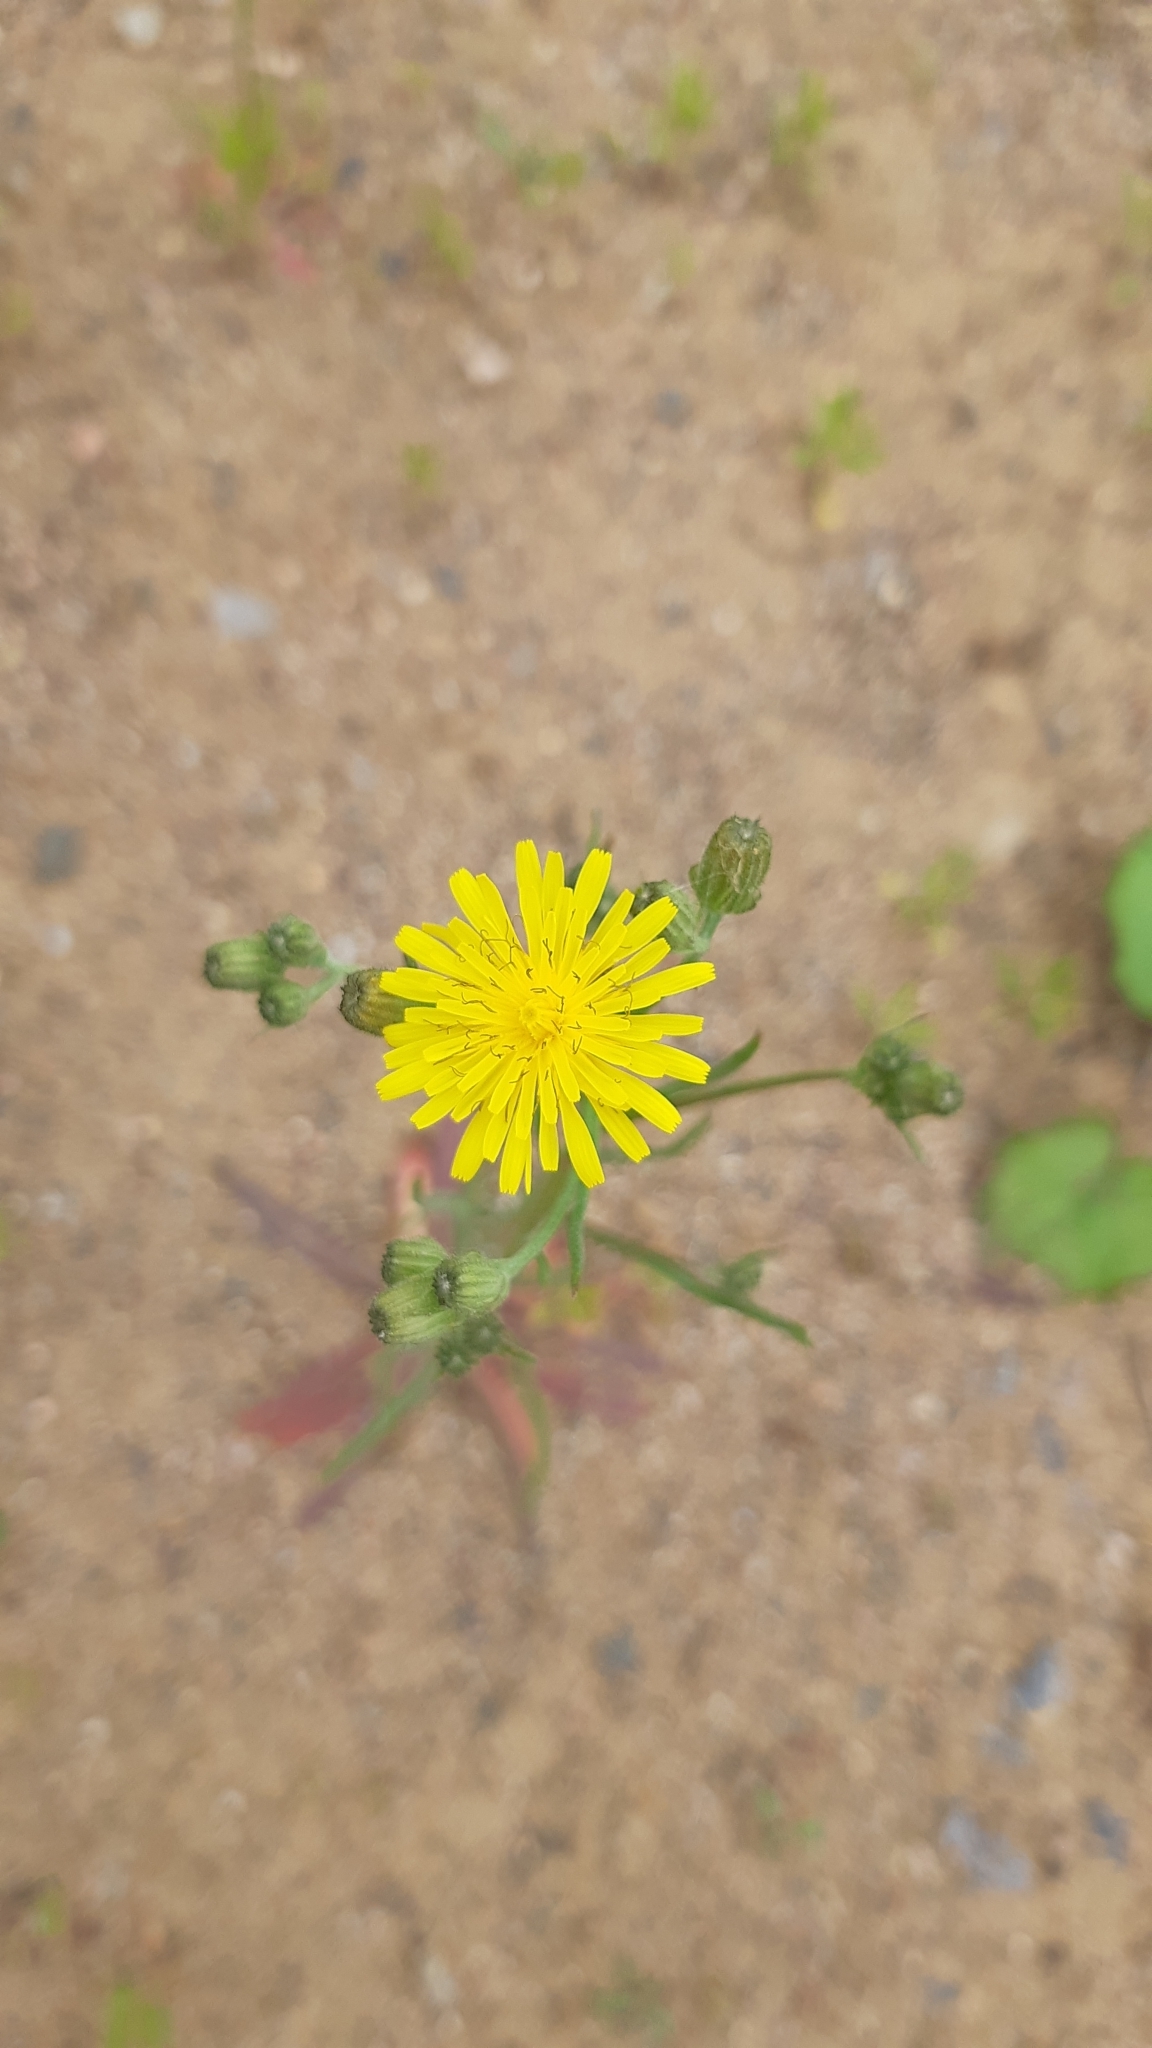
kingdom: Plantae
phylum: Tracheophyta
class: Magnoliopsida
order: Asterales
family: Asteraceae
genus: Crepis
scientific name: Crepis tectorum
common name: Narrow-leaved hawk's-beard
